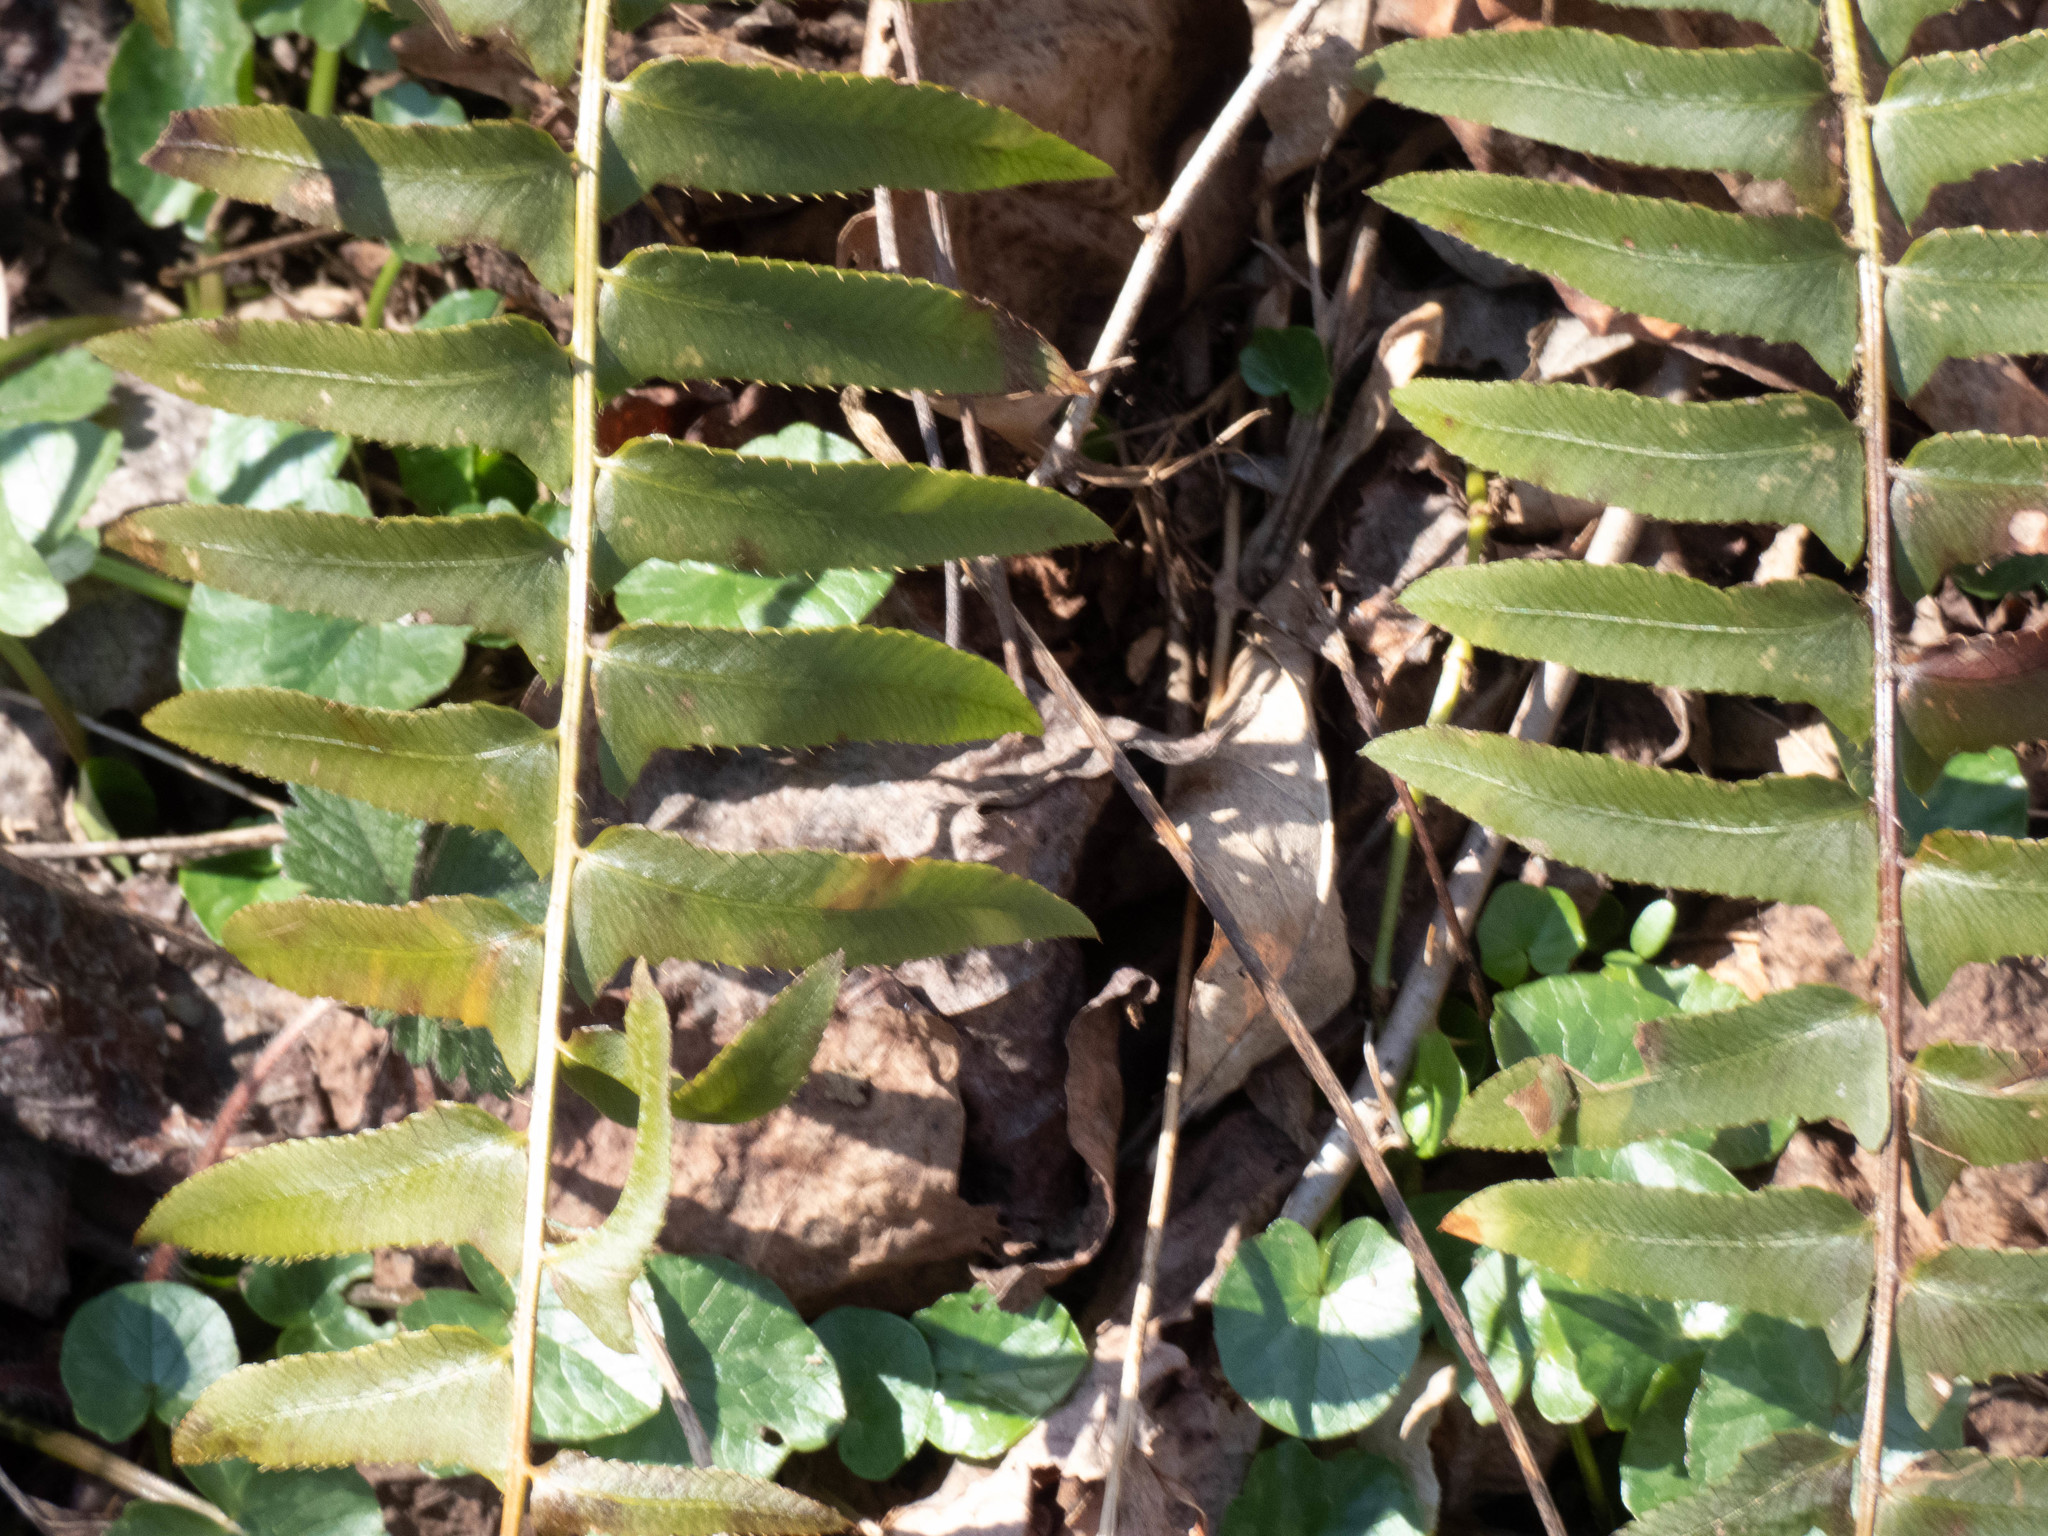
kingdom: Plantae
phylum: Tracheophyta
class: Polypodiopsida
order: Polypodiales
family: Dryopteridaceae
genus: Polystichum
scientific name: Polystichum acrostichoides
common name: Christmas fern
